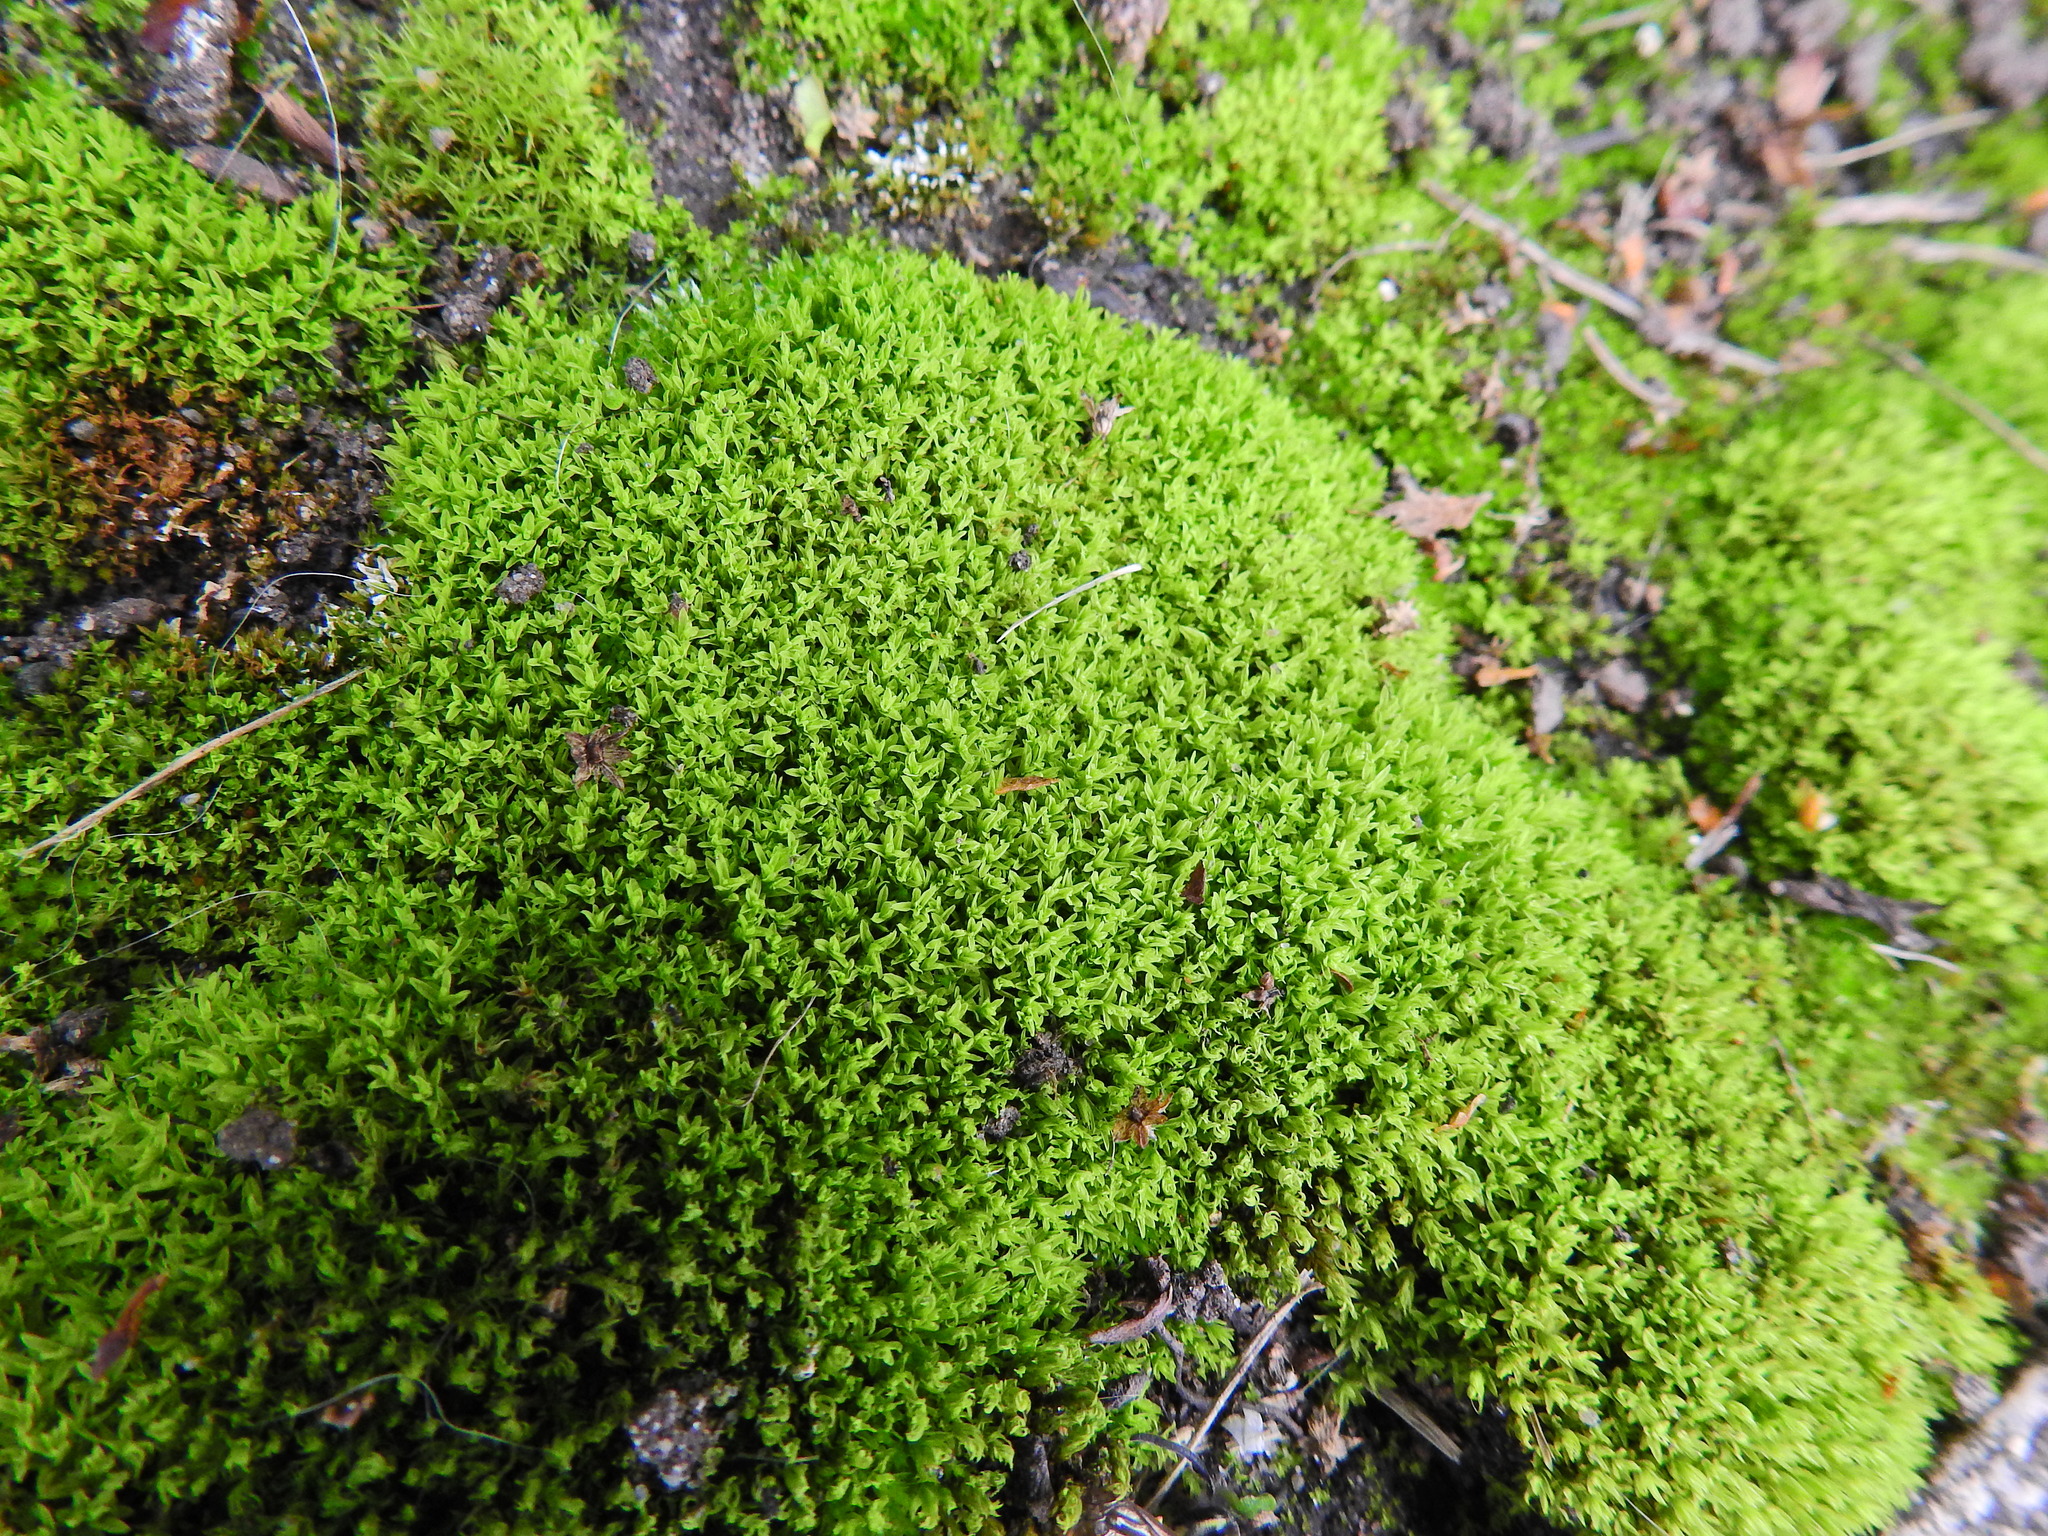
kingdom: Plantae
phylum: Bryophyta
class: Bryopsida
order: Pottiales
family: Pottiaceae
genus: Barbula
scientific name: Barbula unguiculata
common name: Prickly beard moss
